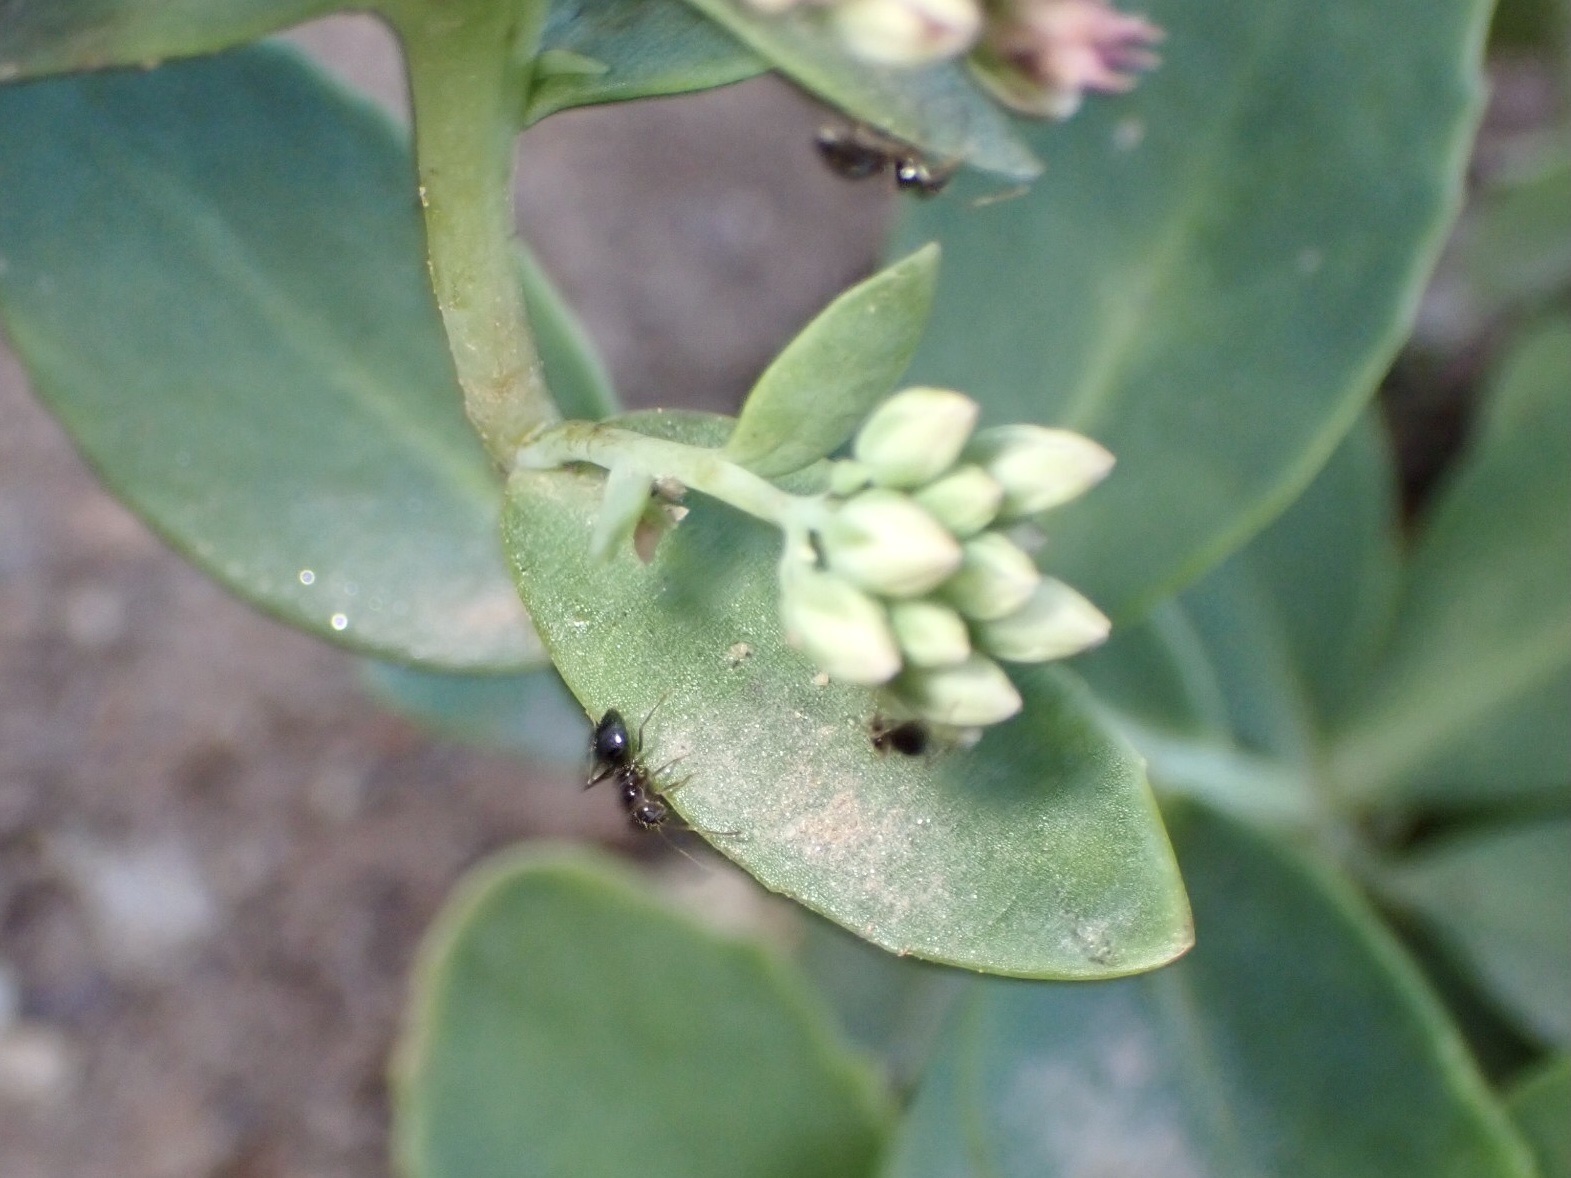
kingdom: Animalia
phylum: Arthropoda
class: Insecta
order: Hymenoptera
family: Formicidae
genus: Prenolepis
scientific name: Prenolepis imparis
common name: Small honey ant
